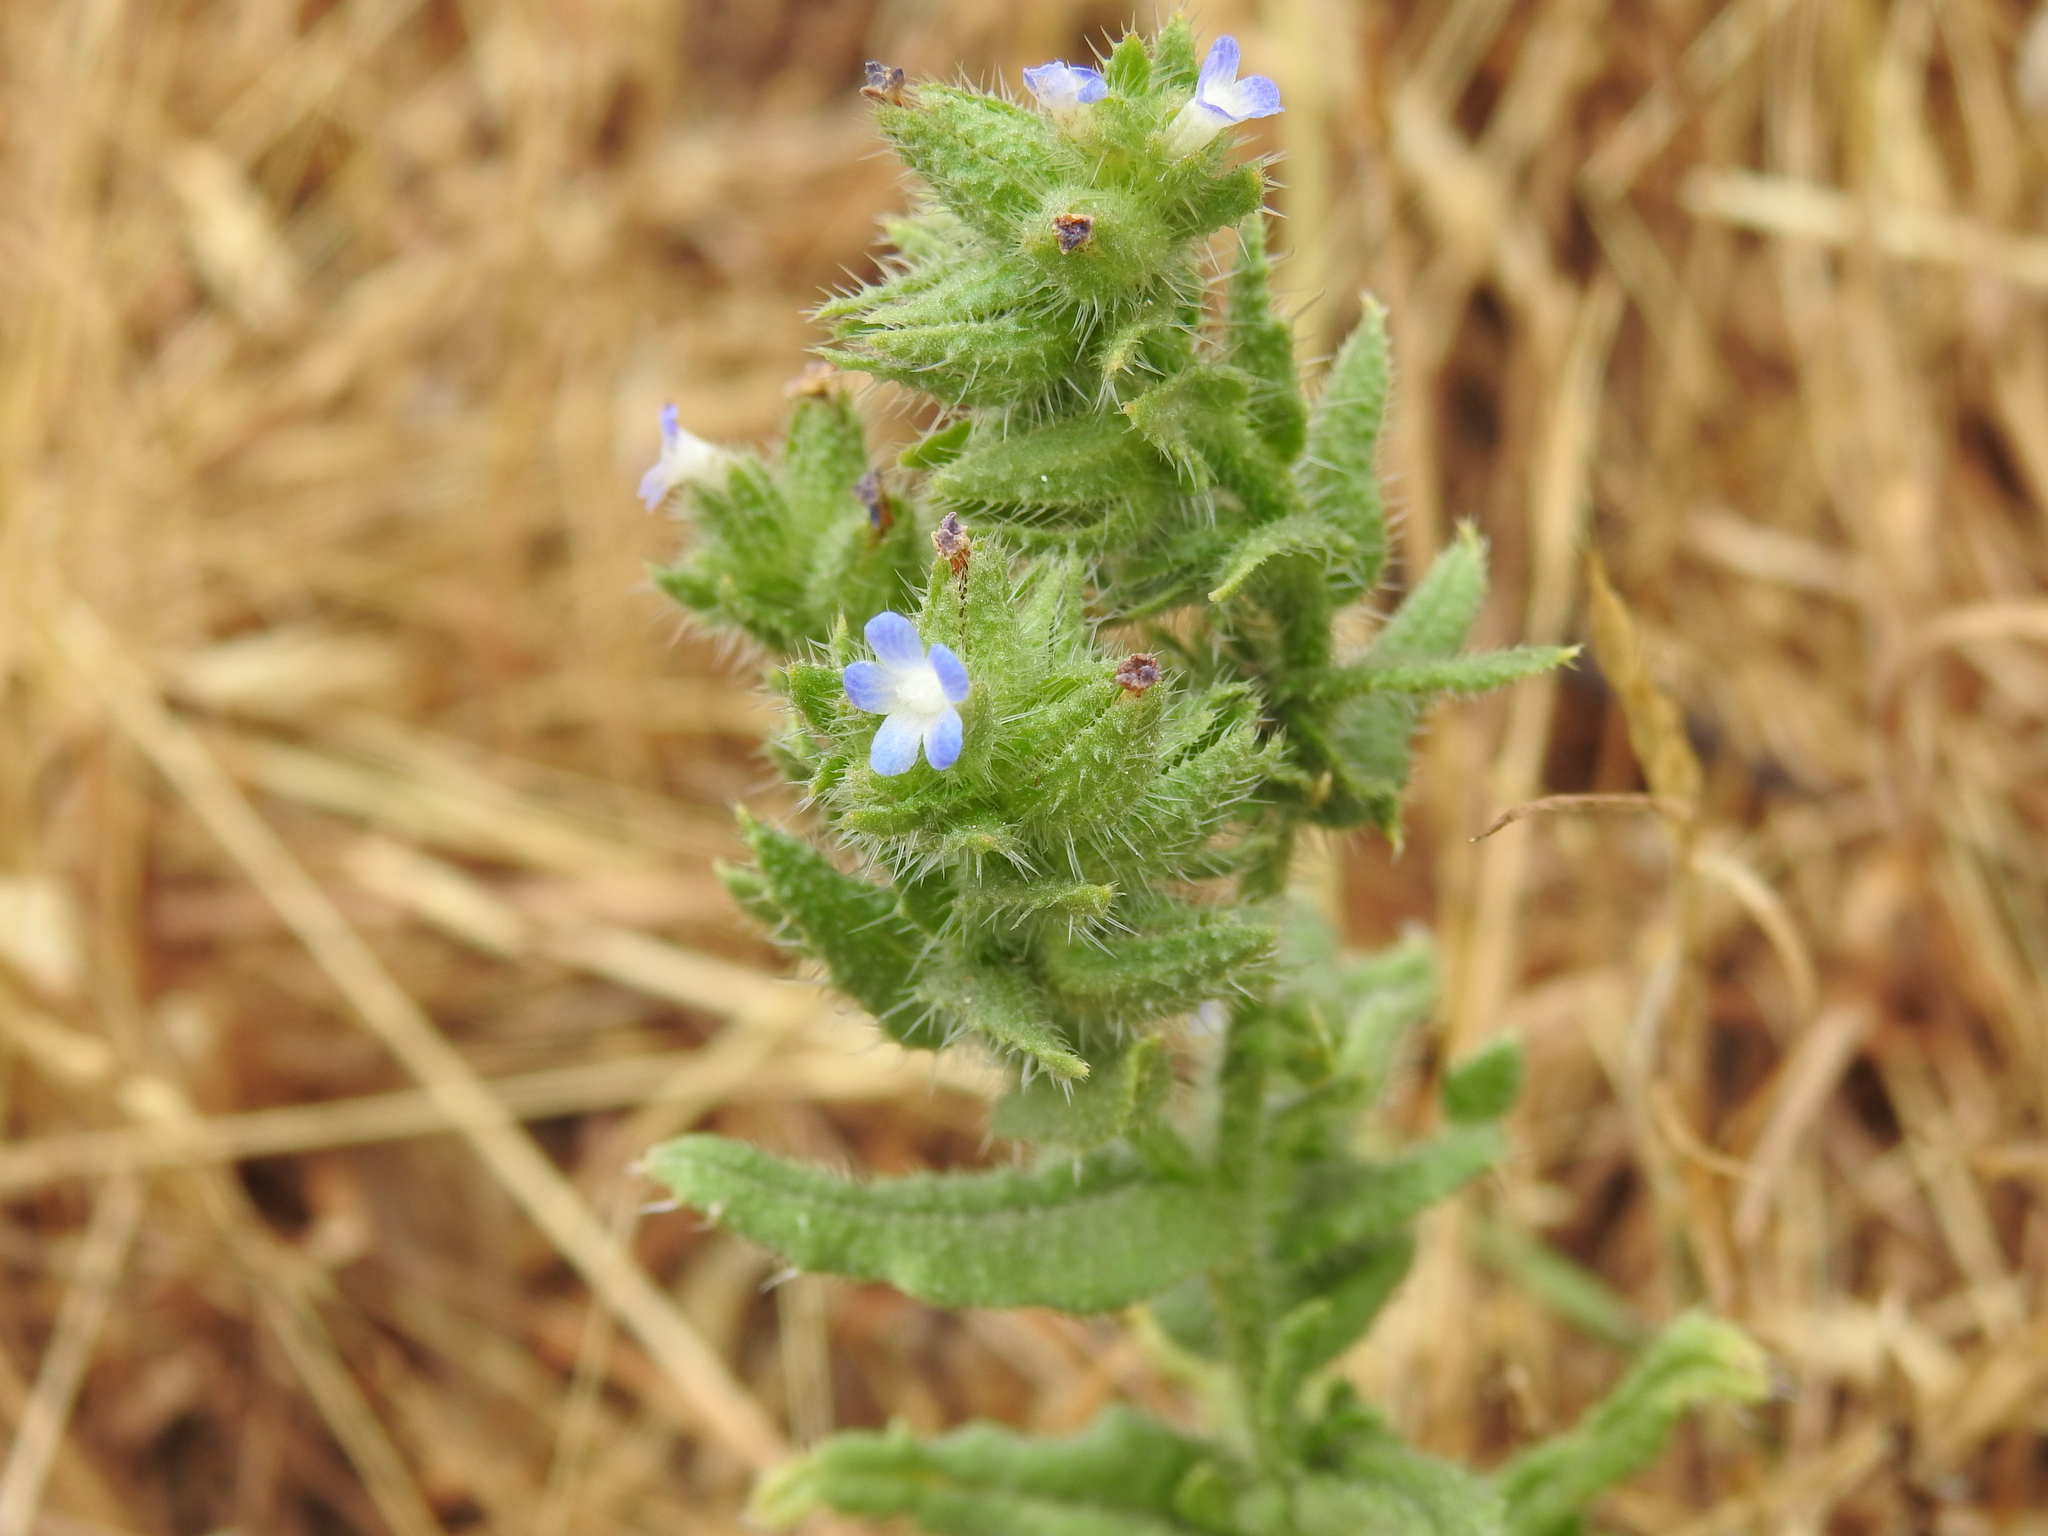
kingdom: Plantae
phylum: Tracheophyta
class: Magnoliopsida
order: Boraginales
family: Boraginaceae
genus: Lycopsis
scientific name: Lycopsis arvensis
